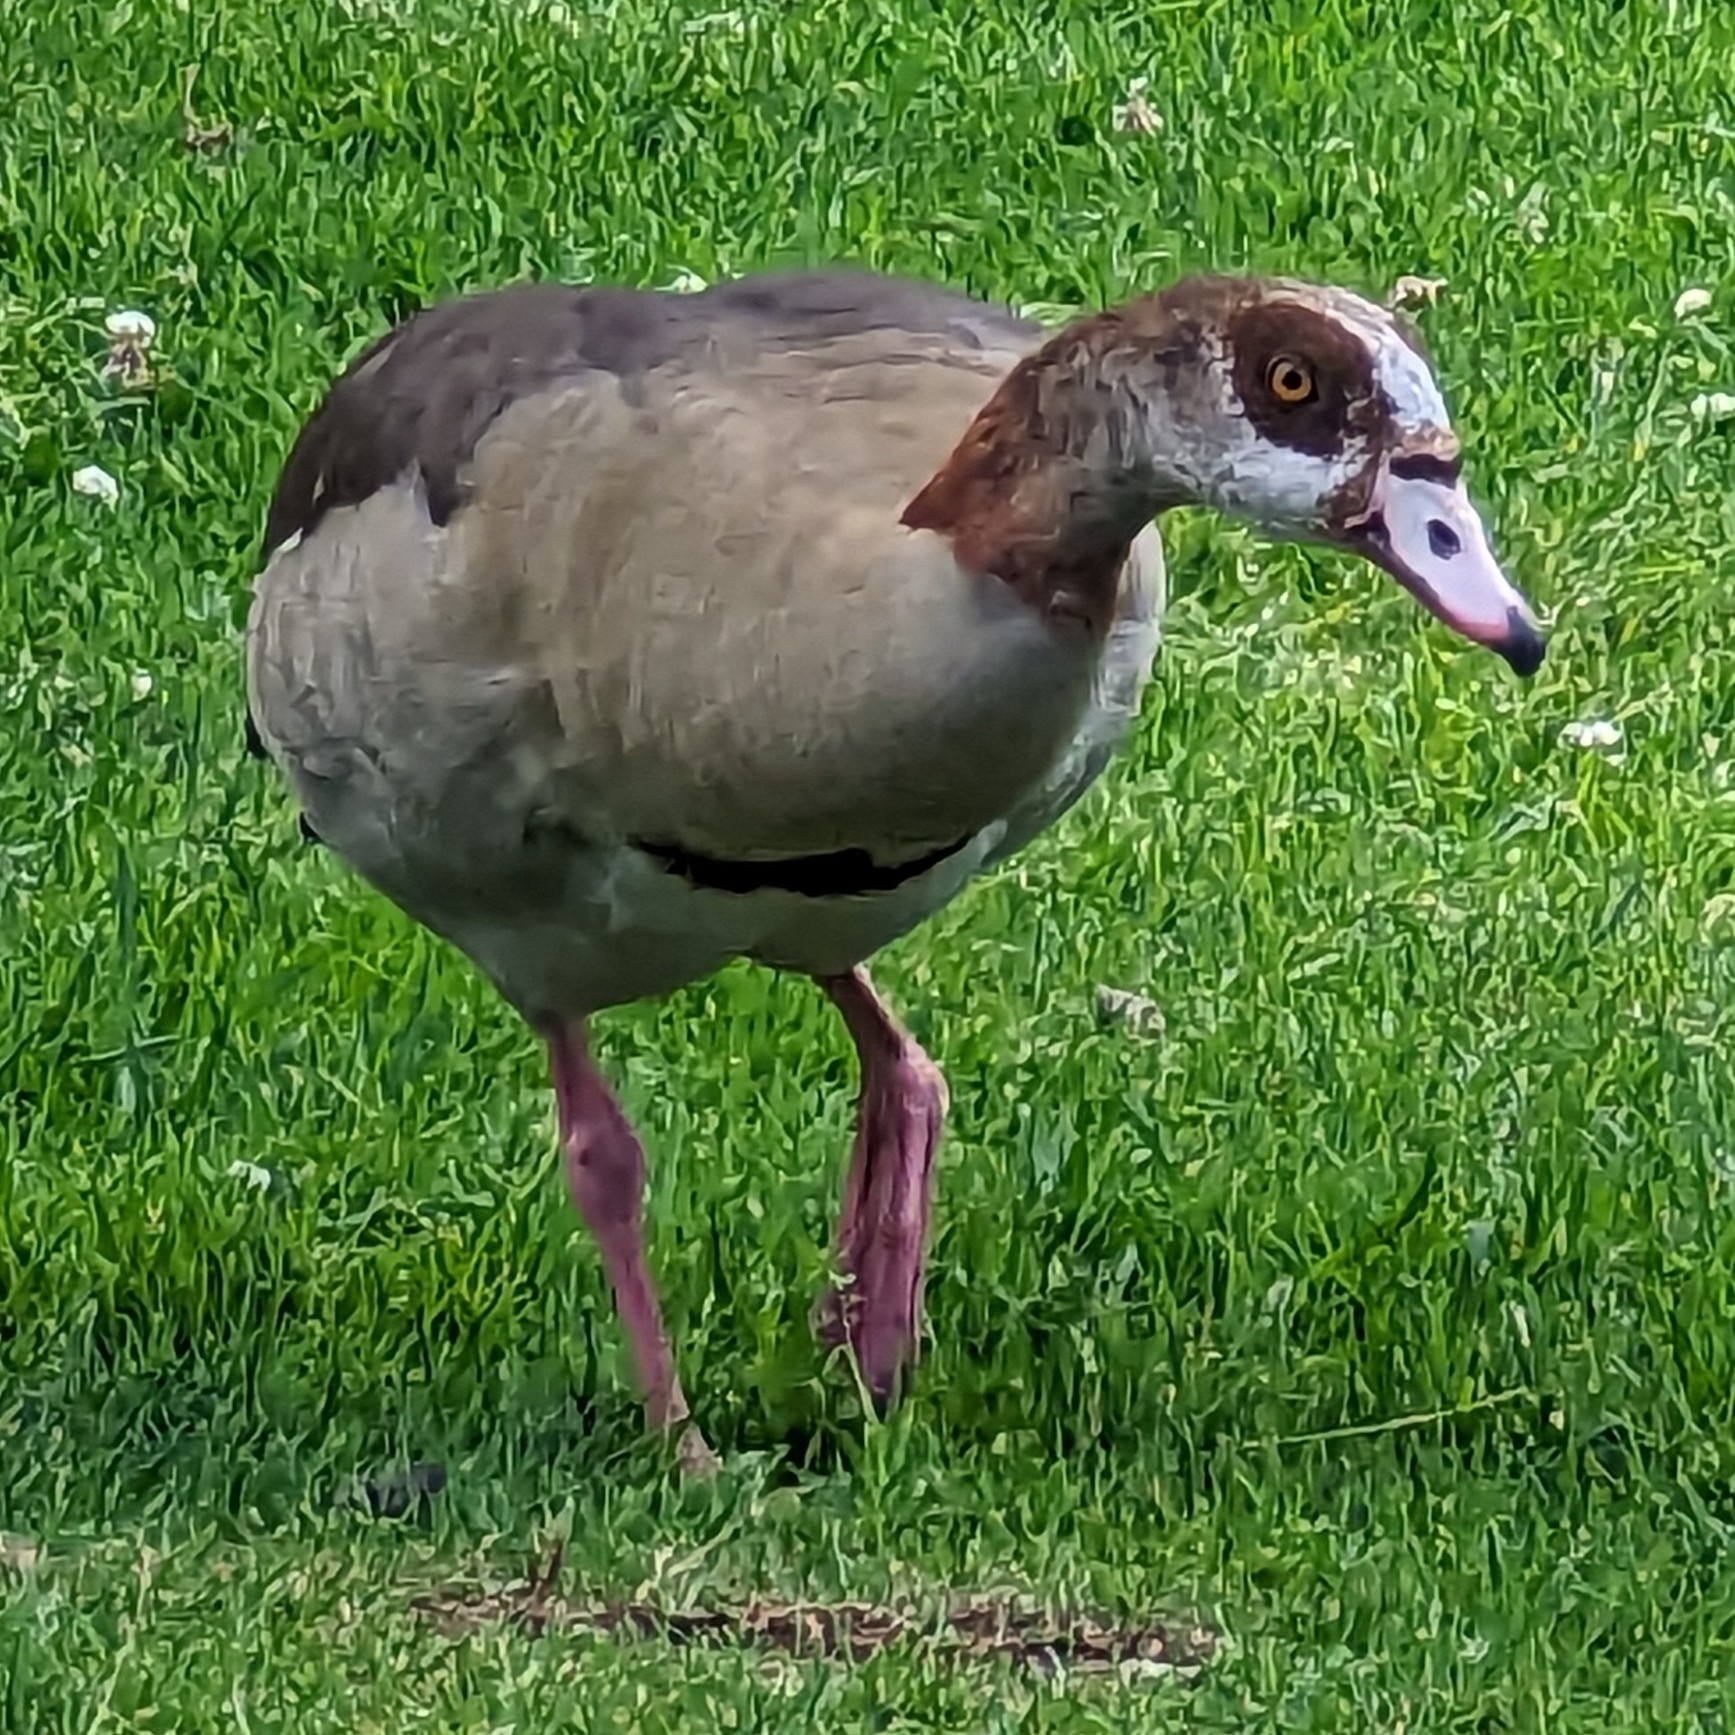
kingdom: Animalia
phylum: Chordata
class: Aves
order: Anseriformes
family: Anatidae
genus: Alopochen
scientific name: Alopochen aegyptiaca
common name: Egyptian goose
